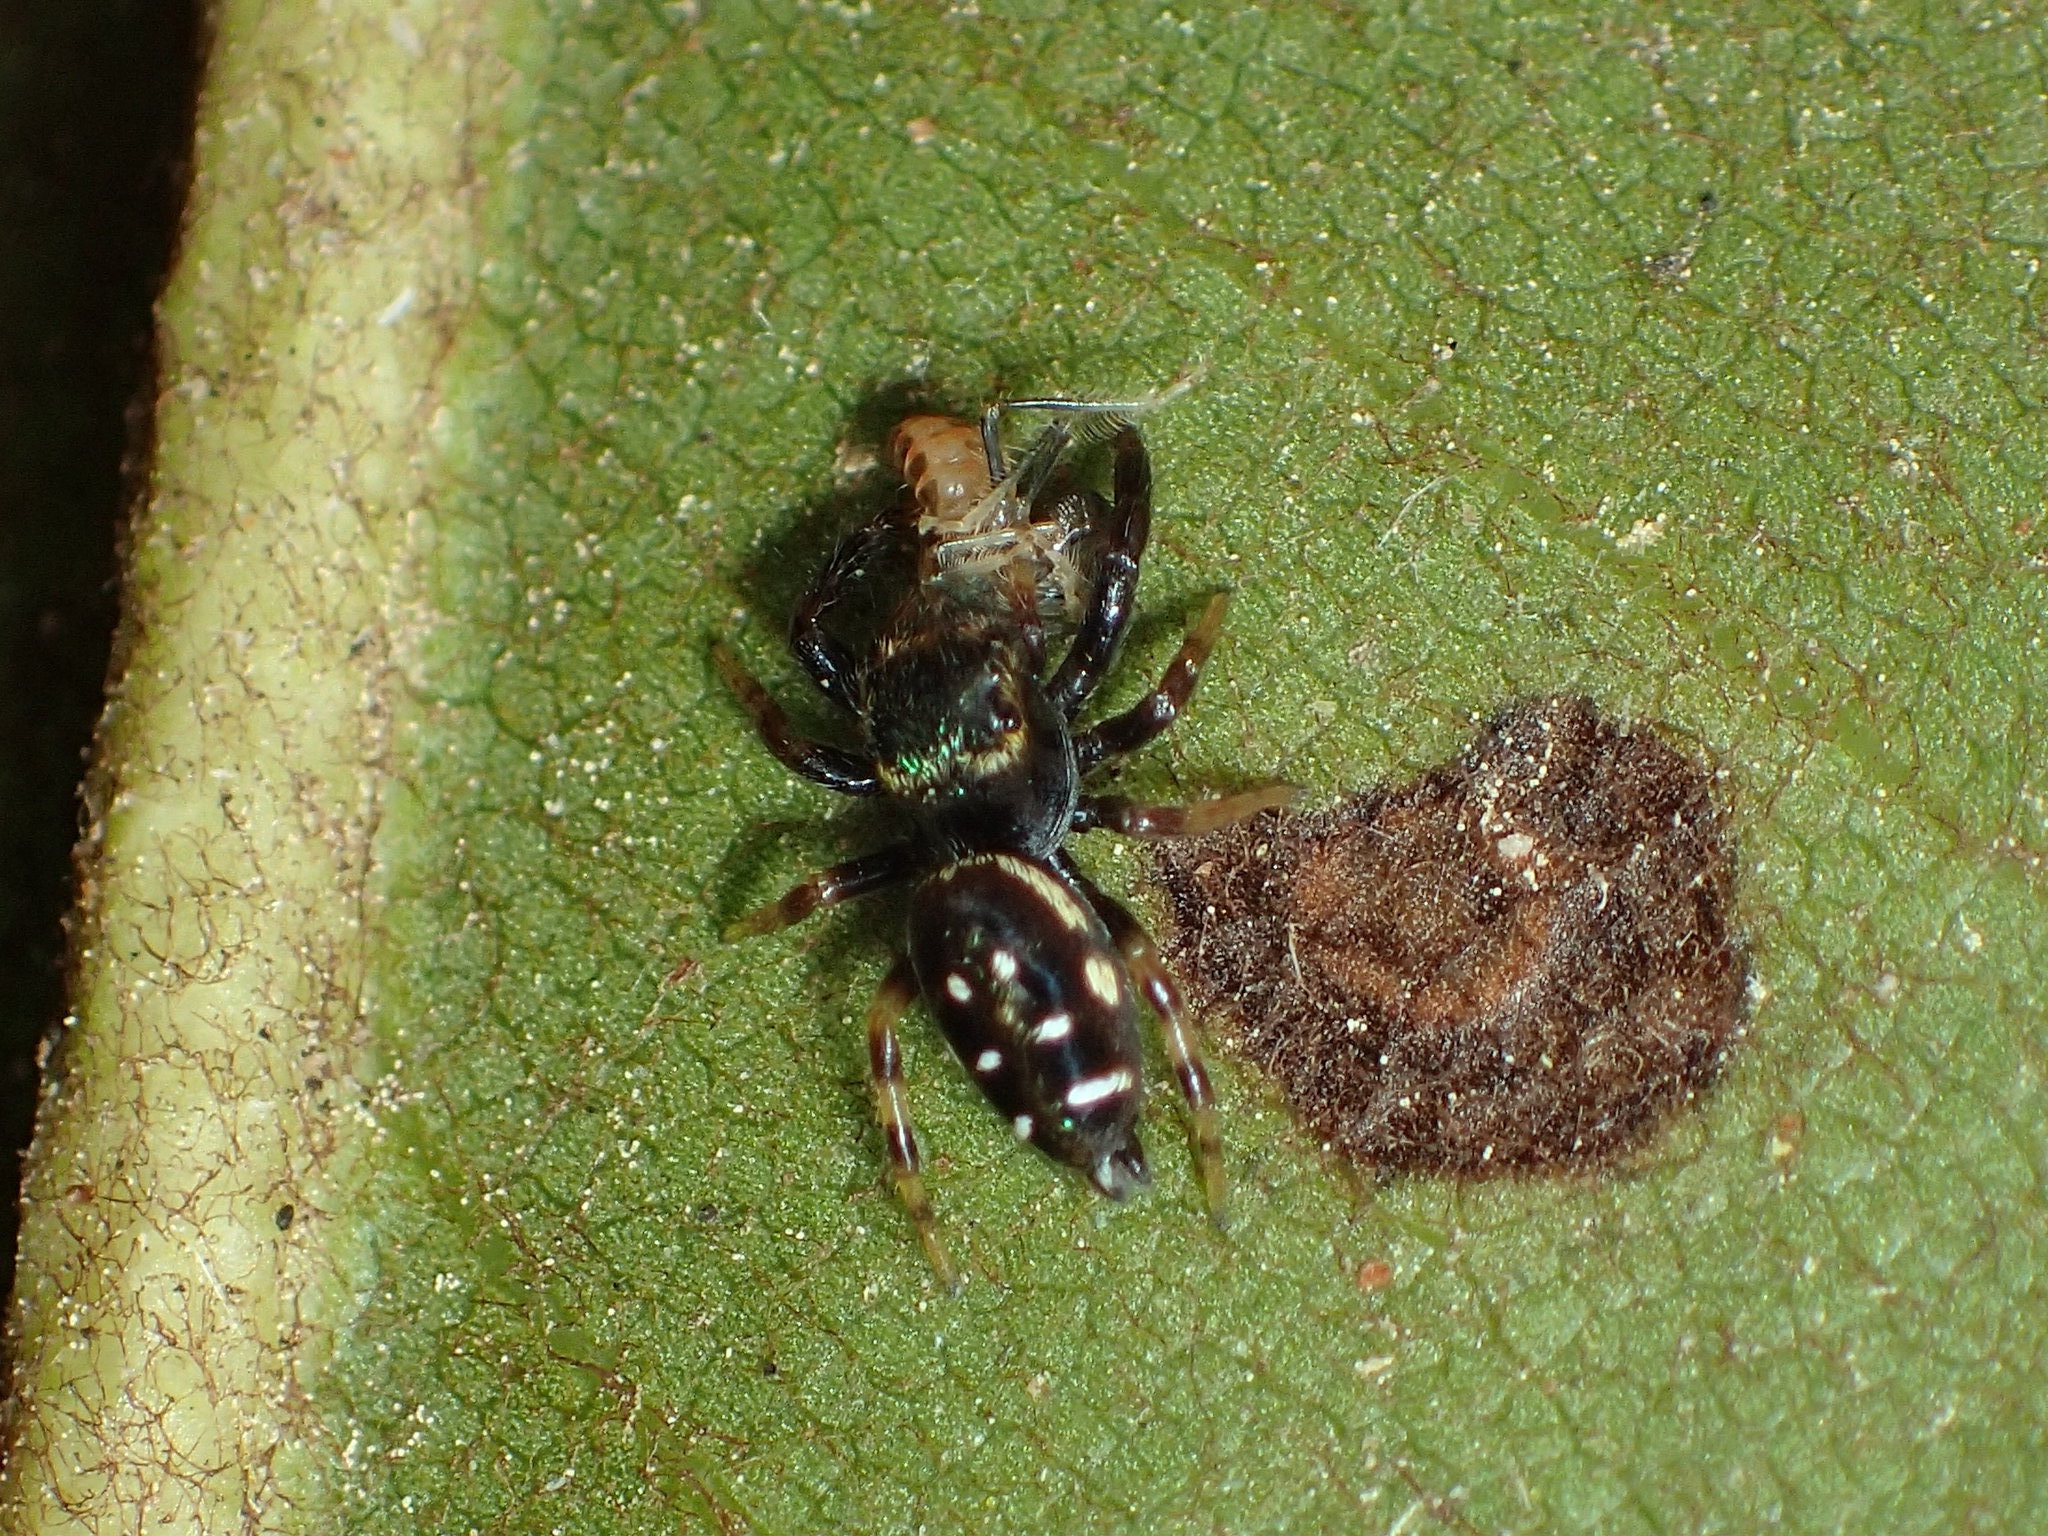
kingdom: Animalia
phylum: Arthropoda
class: Arachnida
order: Araneae
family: Salticidae
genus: Paraphidippus
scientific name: Paraphidippus aurantius
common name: Jumping spiders
